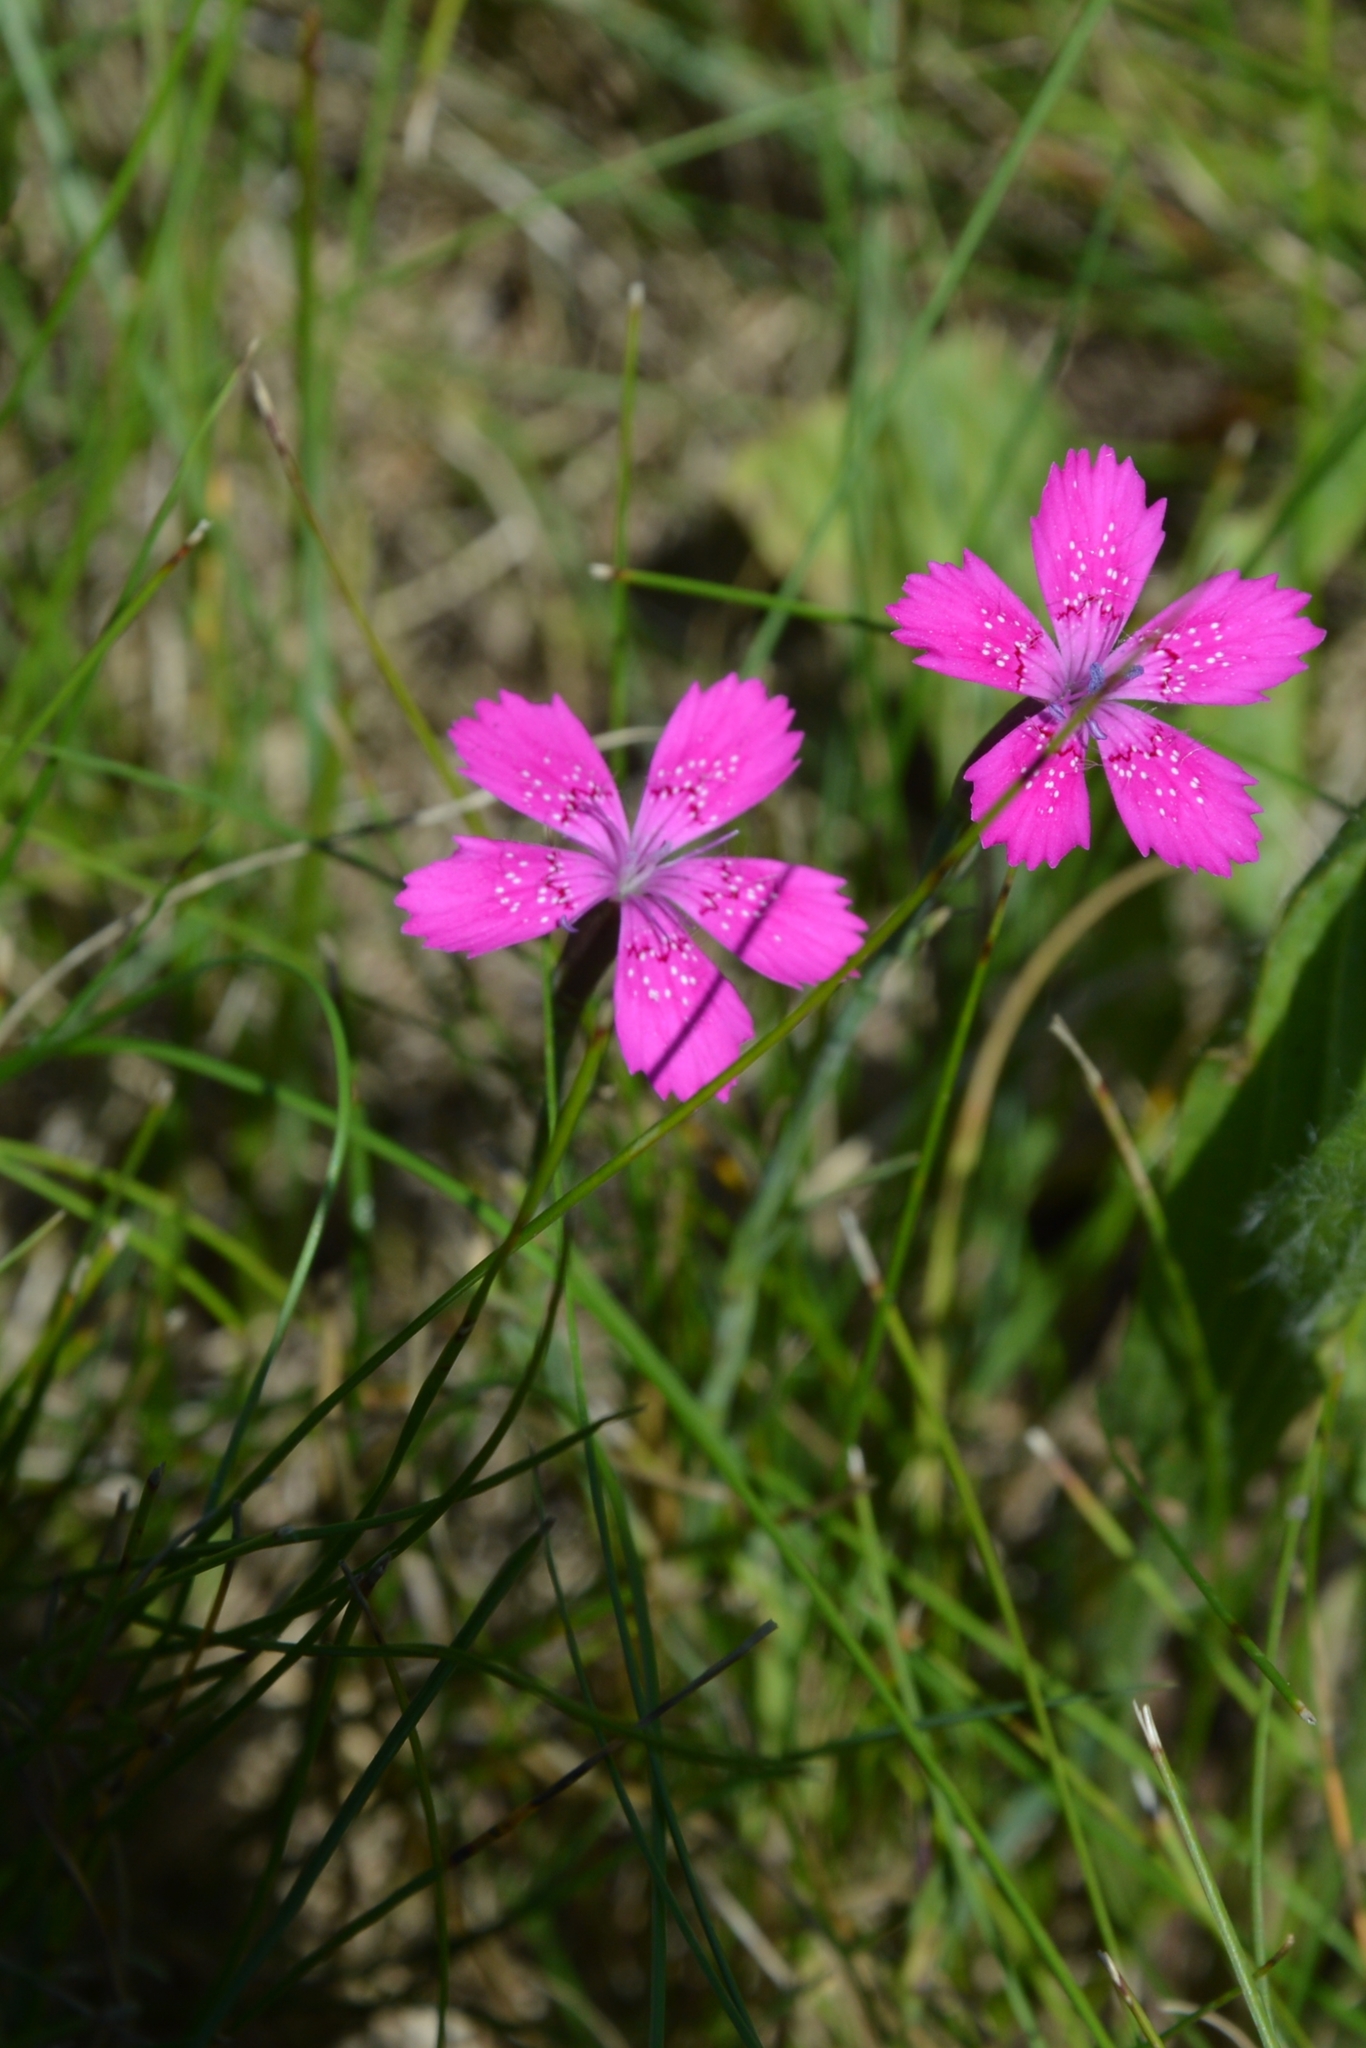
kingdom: Plantae
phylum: Tracheophyta
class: Magnoliopsida
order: Caryophyllales
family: Caryophyllaceae
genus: Dianthus
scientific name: Dianthus deltoides
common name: Maiden pink
